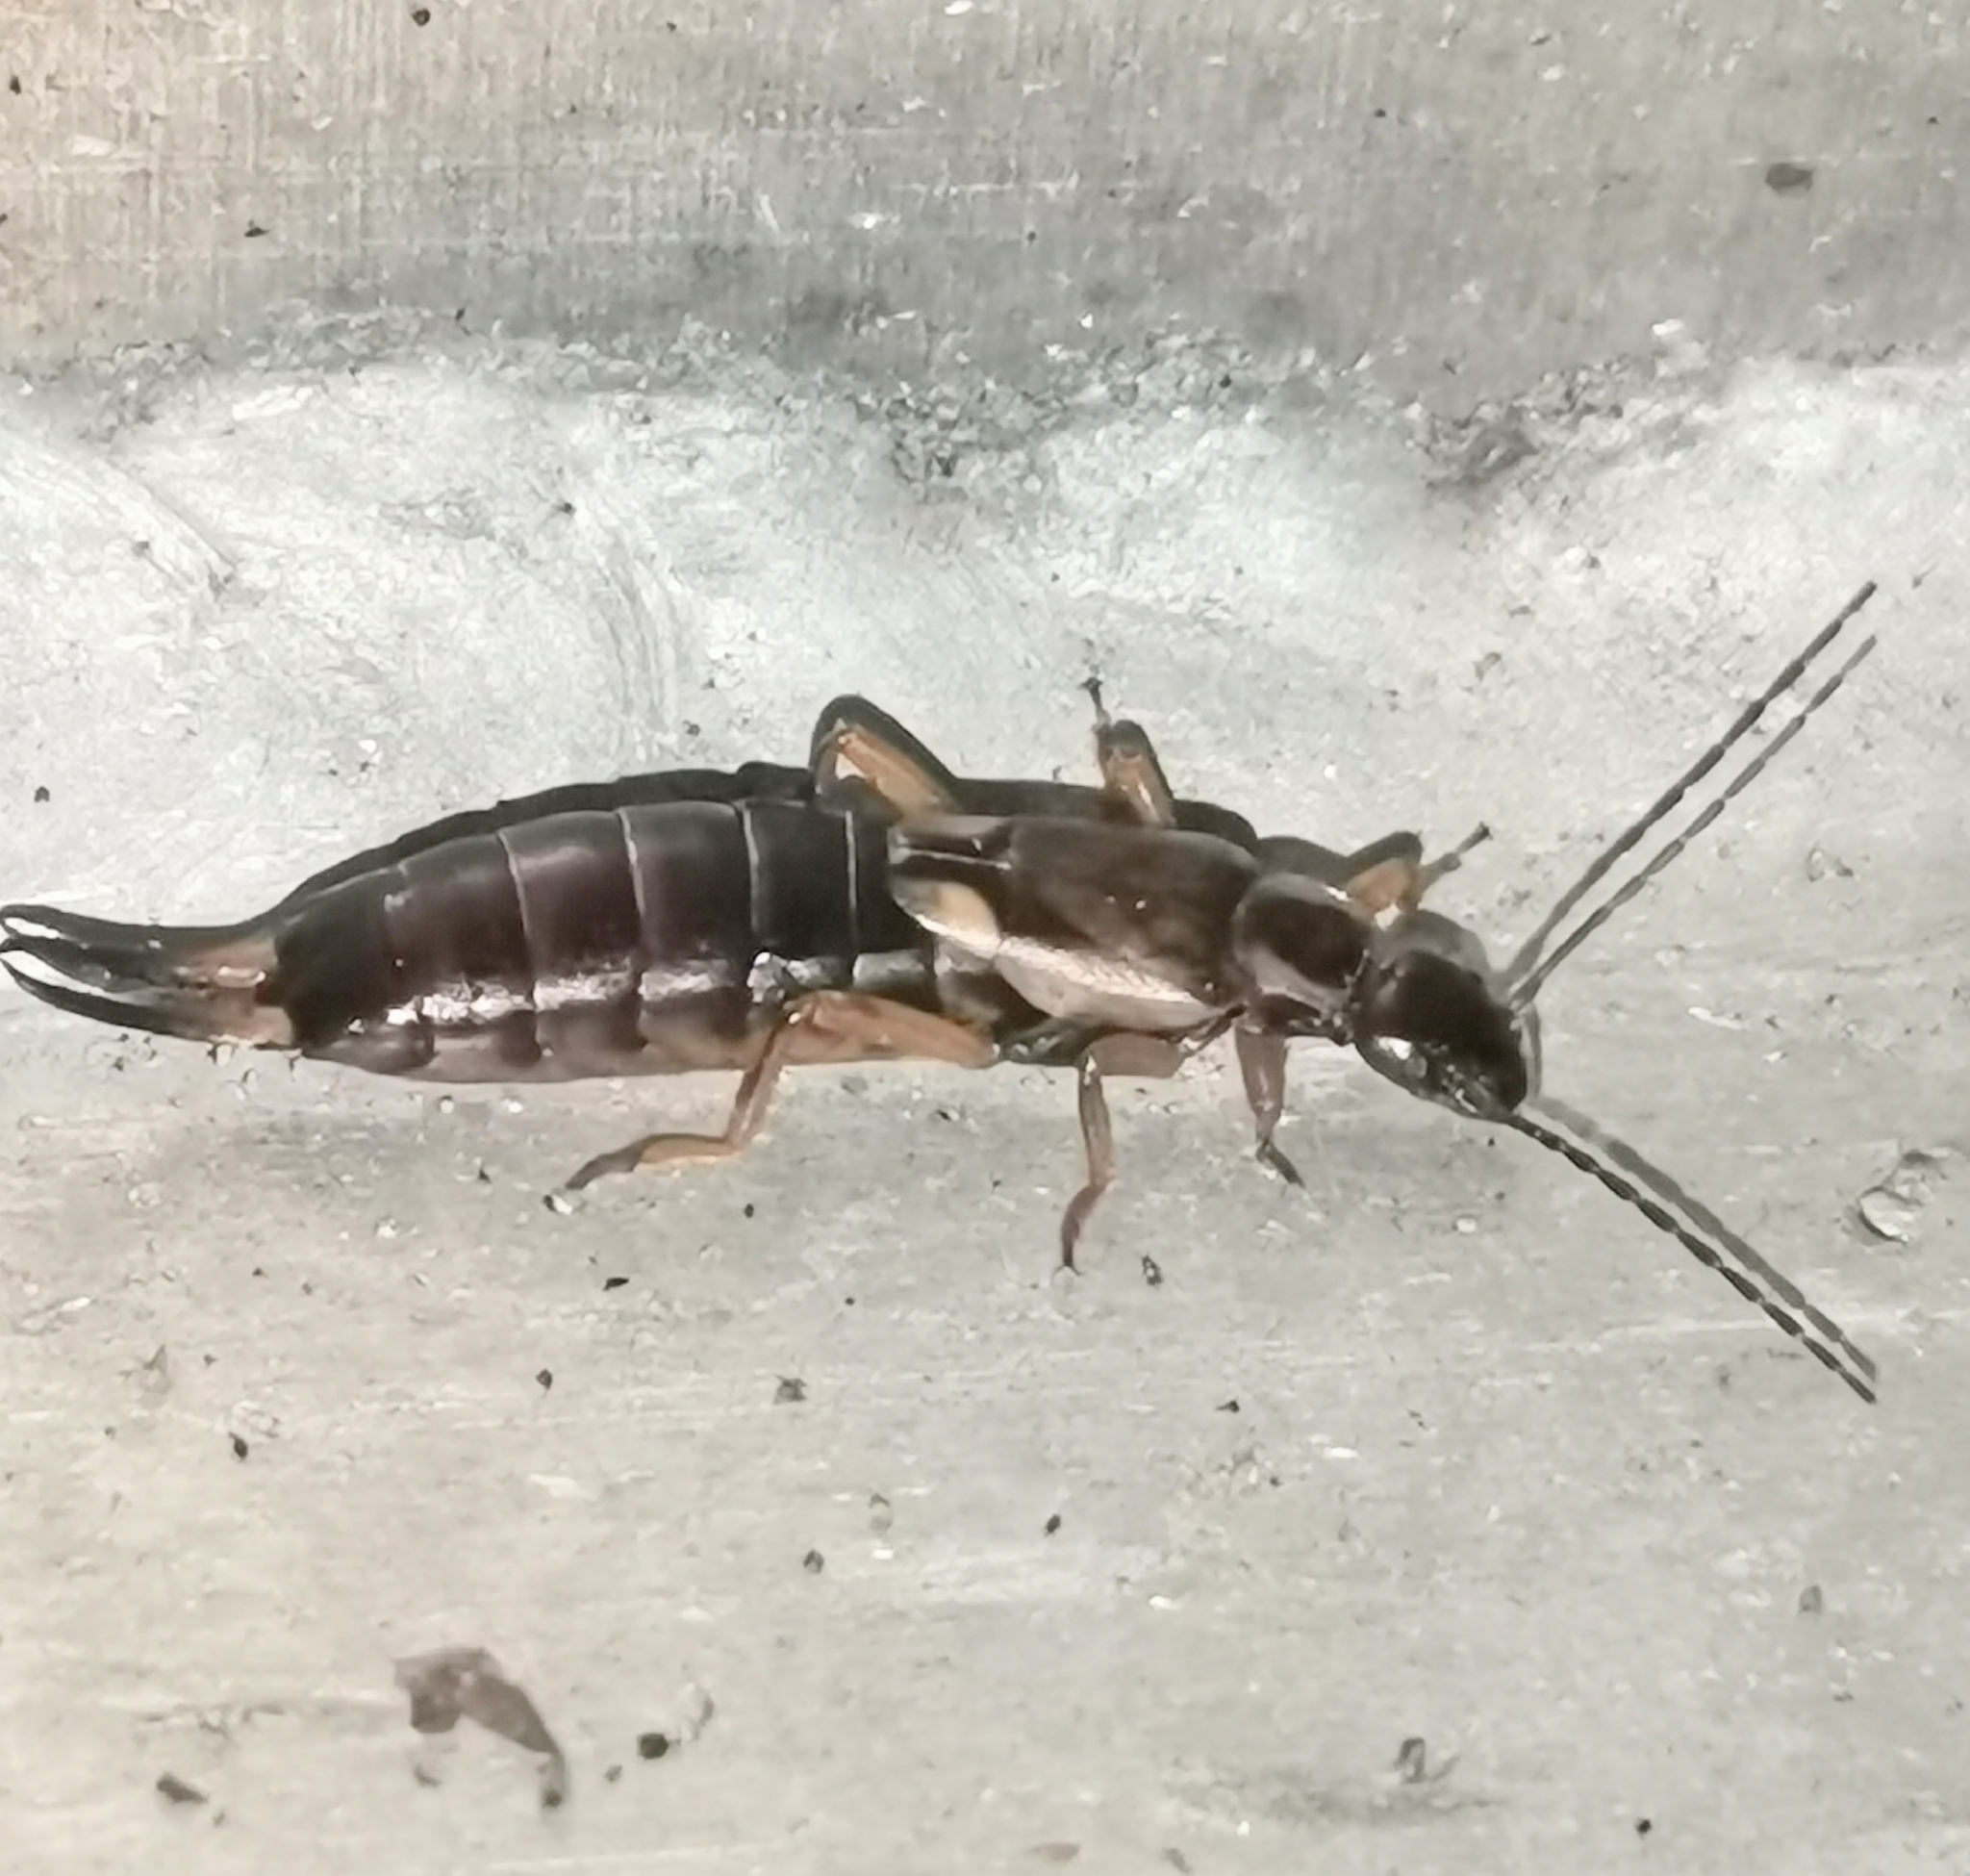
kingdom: Animalia
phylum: Arthropoda
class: Insecta
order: Dermaptera
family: Forficulidae
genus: Forficula
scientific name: Forficula
